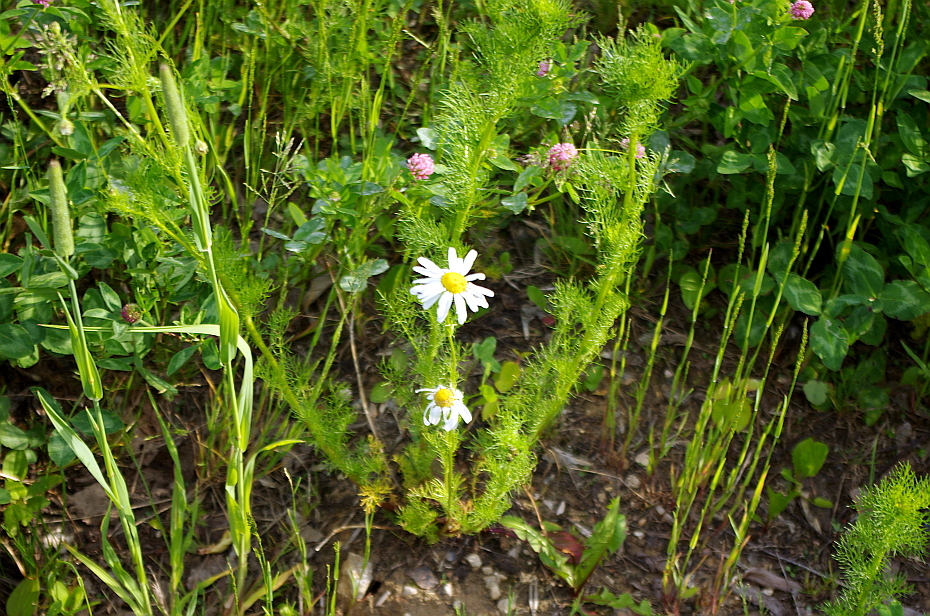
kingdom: Plantae
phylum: Tracheophyta
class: Magnoliopsida
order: Asterales
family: Asteraceae
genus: Tripleurospermum
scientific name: Tripleurospermum inodorum
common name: Scentless mayweed
